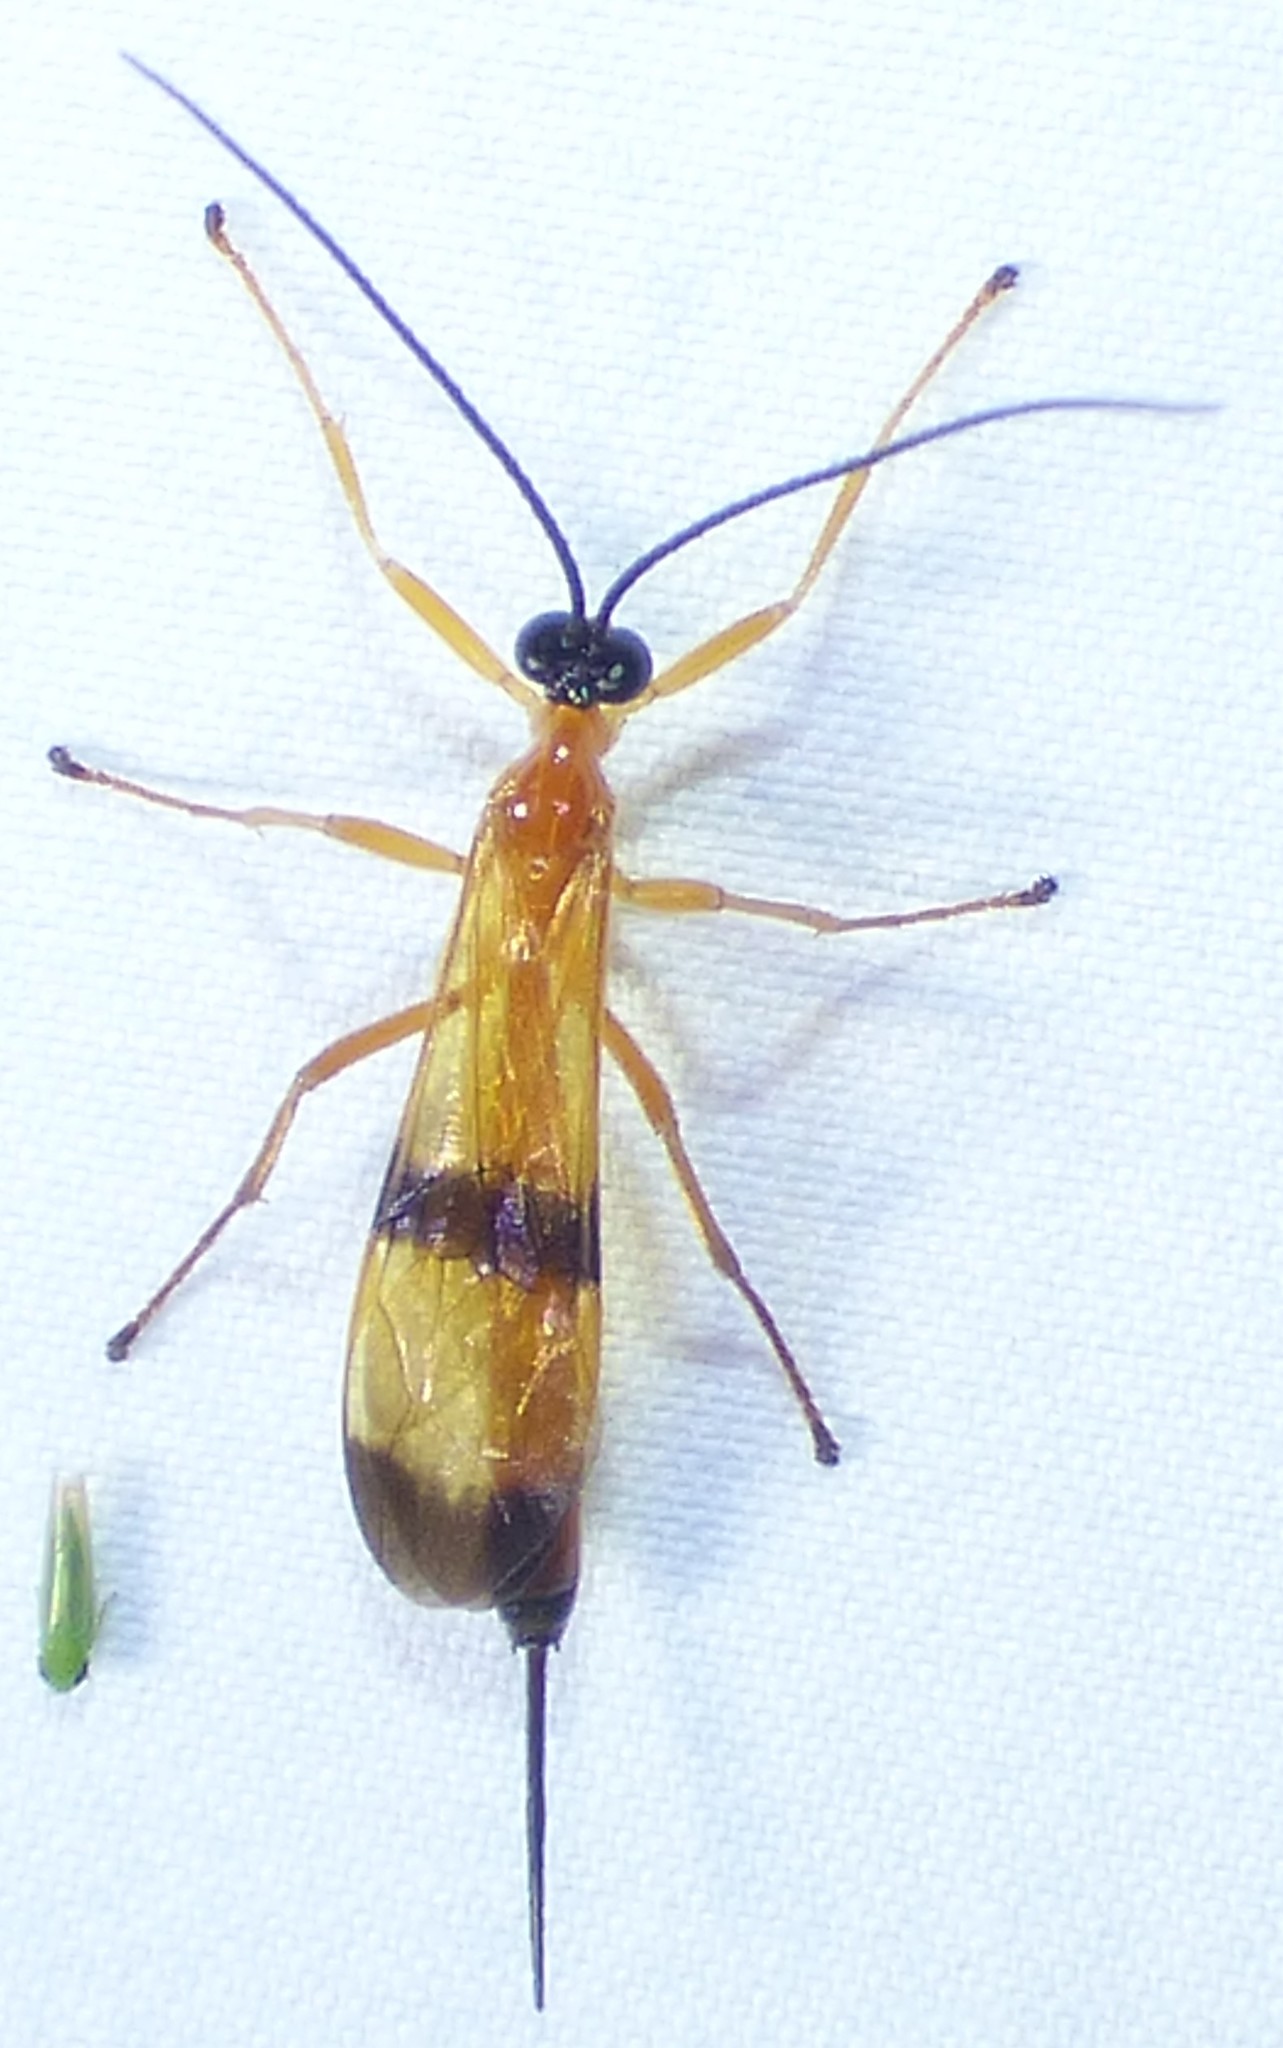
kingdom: Animalia
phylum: Arthropoda
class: Insecta
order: Hymenoptera
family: Ichneumonidae
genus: Acrotaphus
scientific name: Acrotaphus wiltii
